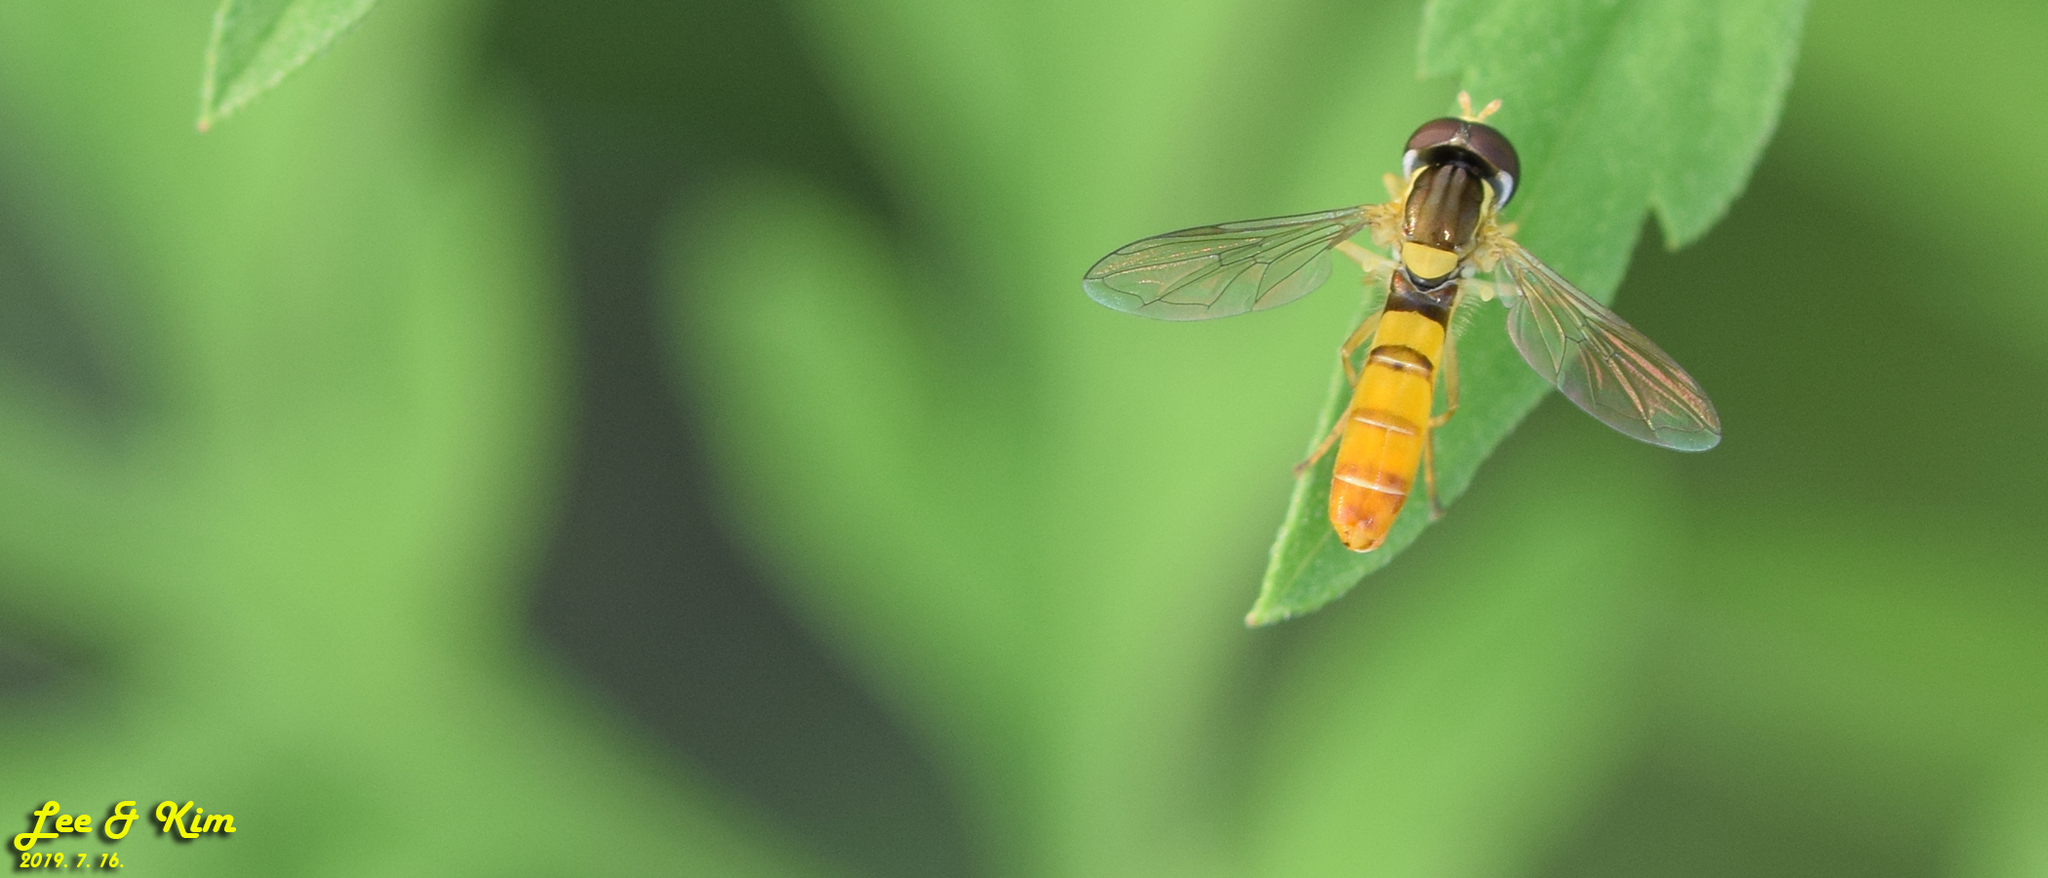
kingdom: Animalia
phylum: Arthropoda
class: Insecta
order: Diptera
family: Syrphidae
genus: Sphaerophoria
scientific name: Sphaerophoria scripta
